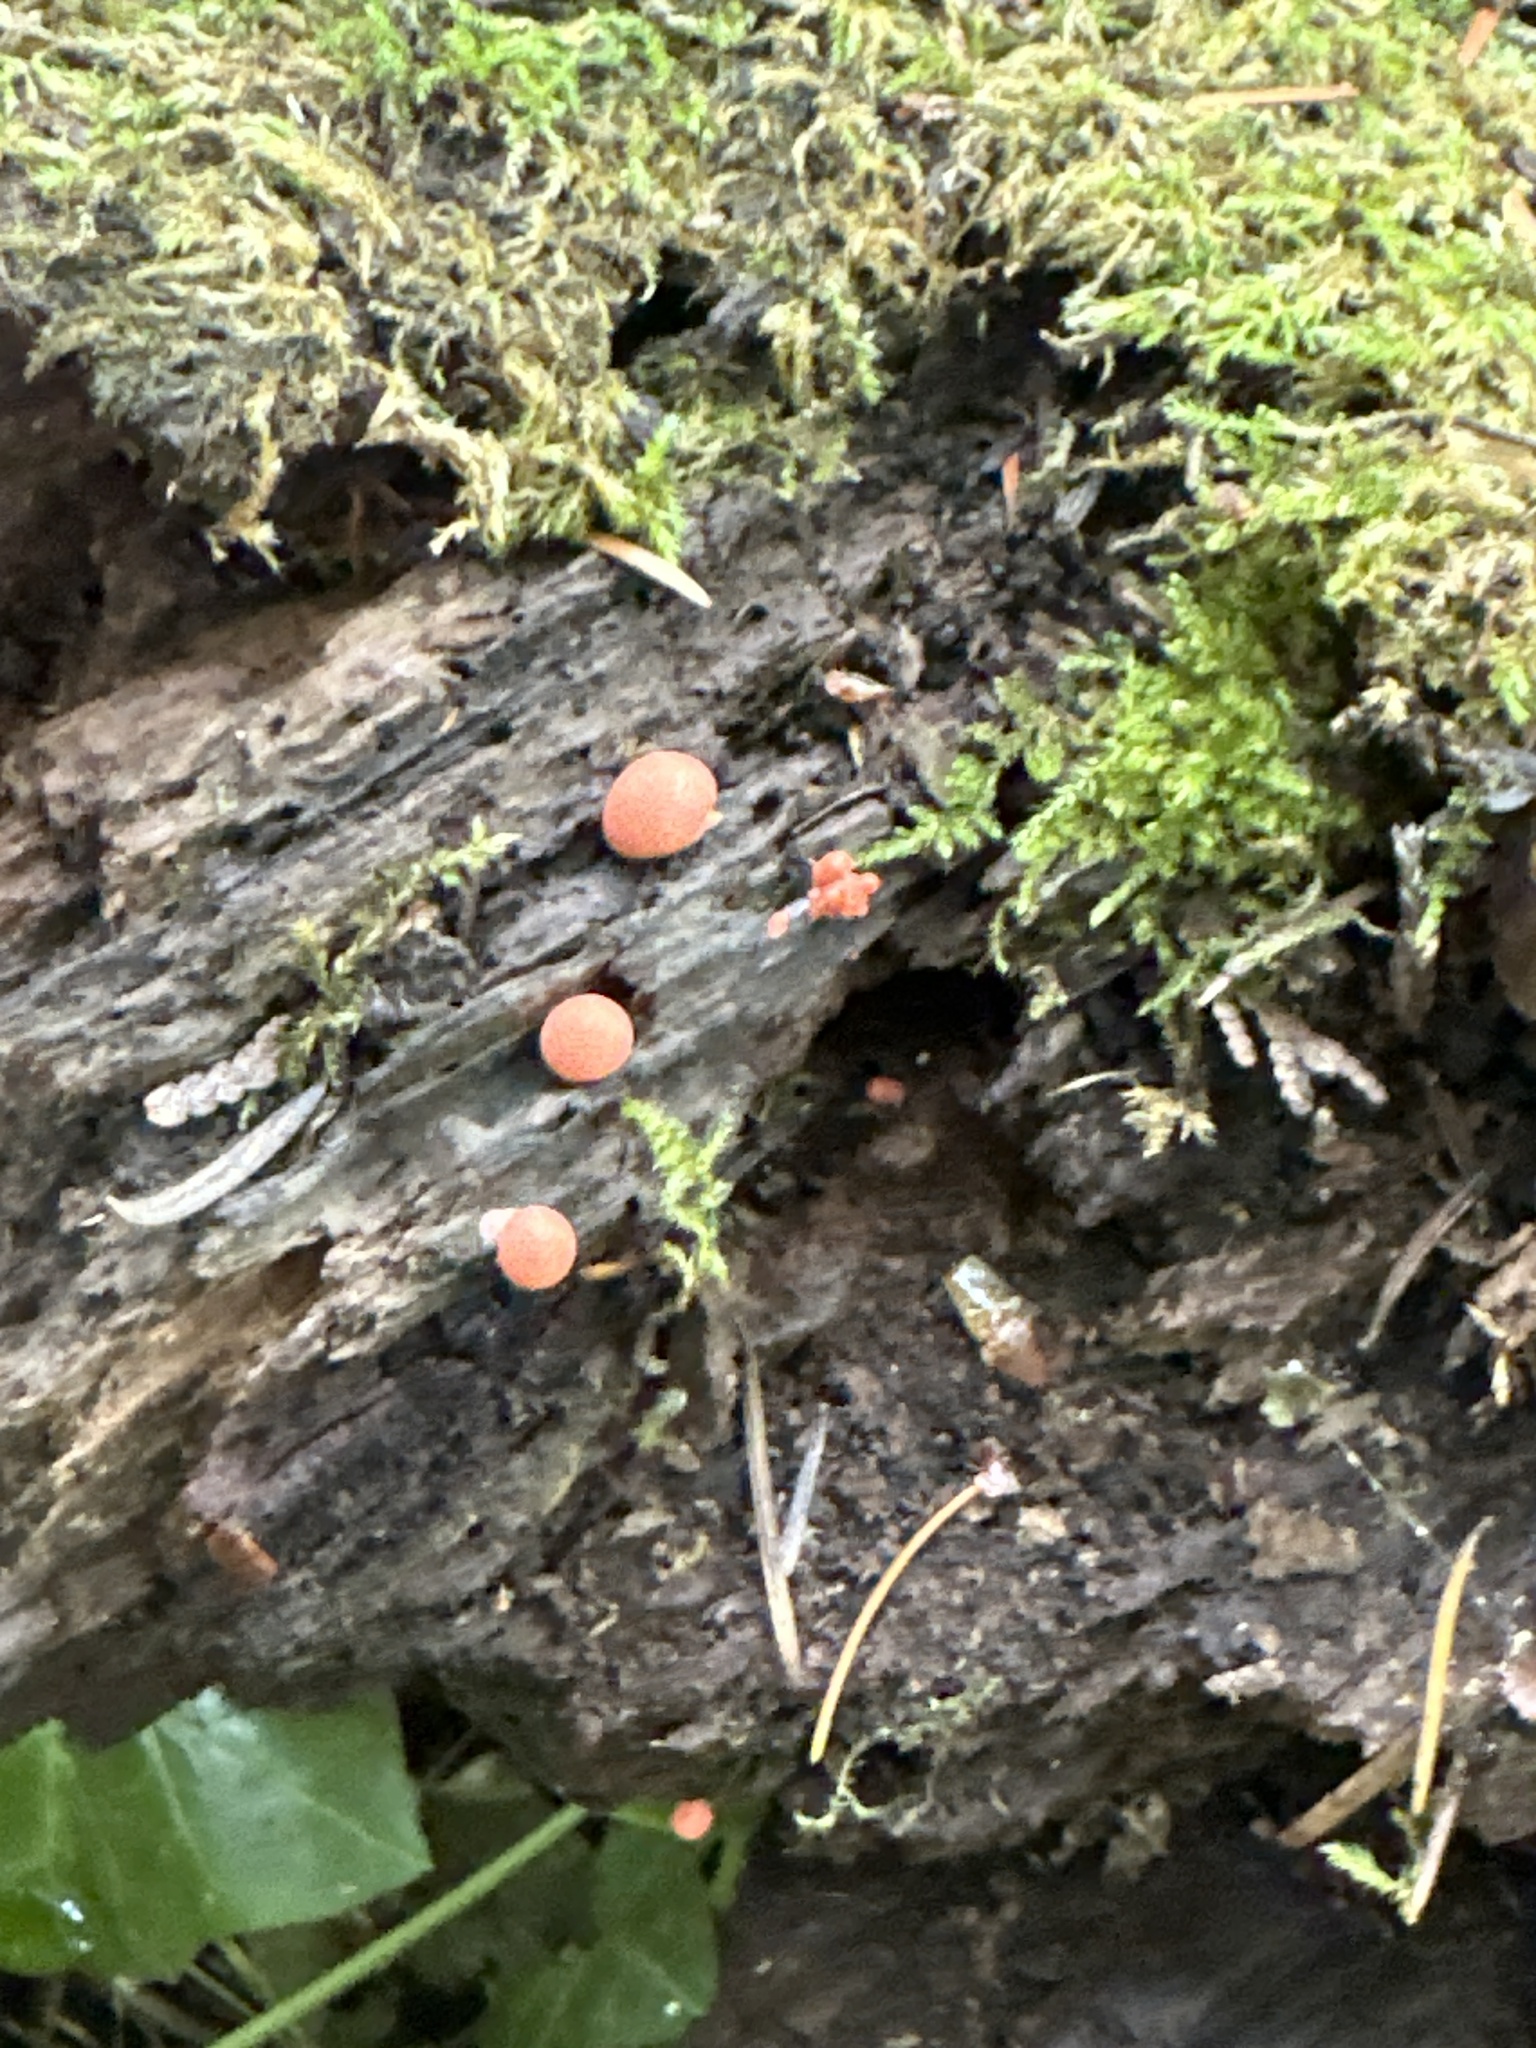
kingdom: Protozoa
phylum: Mycetozoa
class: Myxomycetes
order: Cribrariales
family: Tubiferaceae
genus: Lycogala
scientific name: Lycogala epidendrum
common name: Wolf's milk
